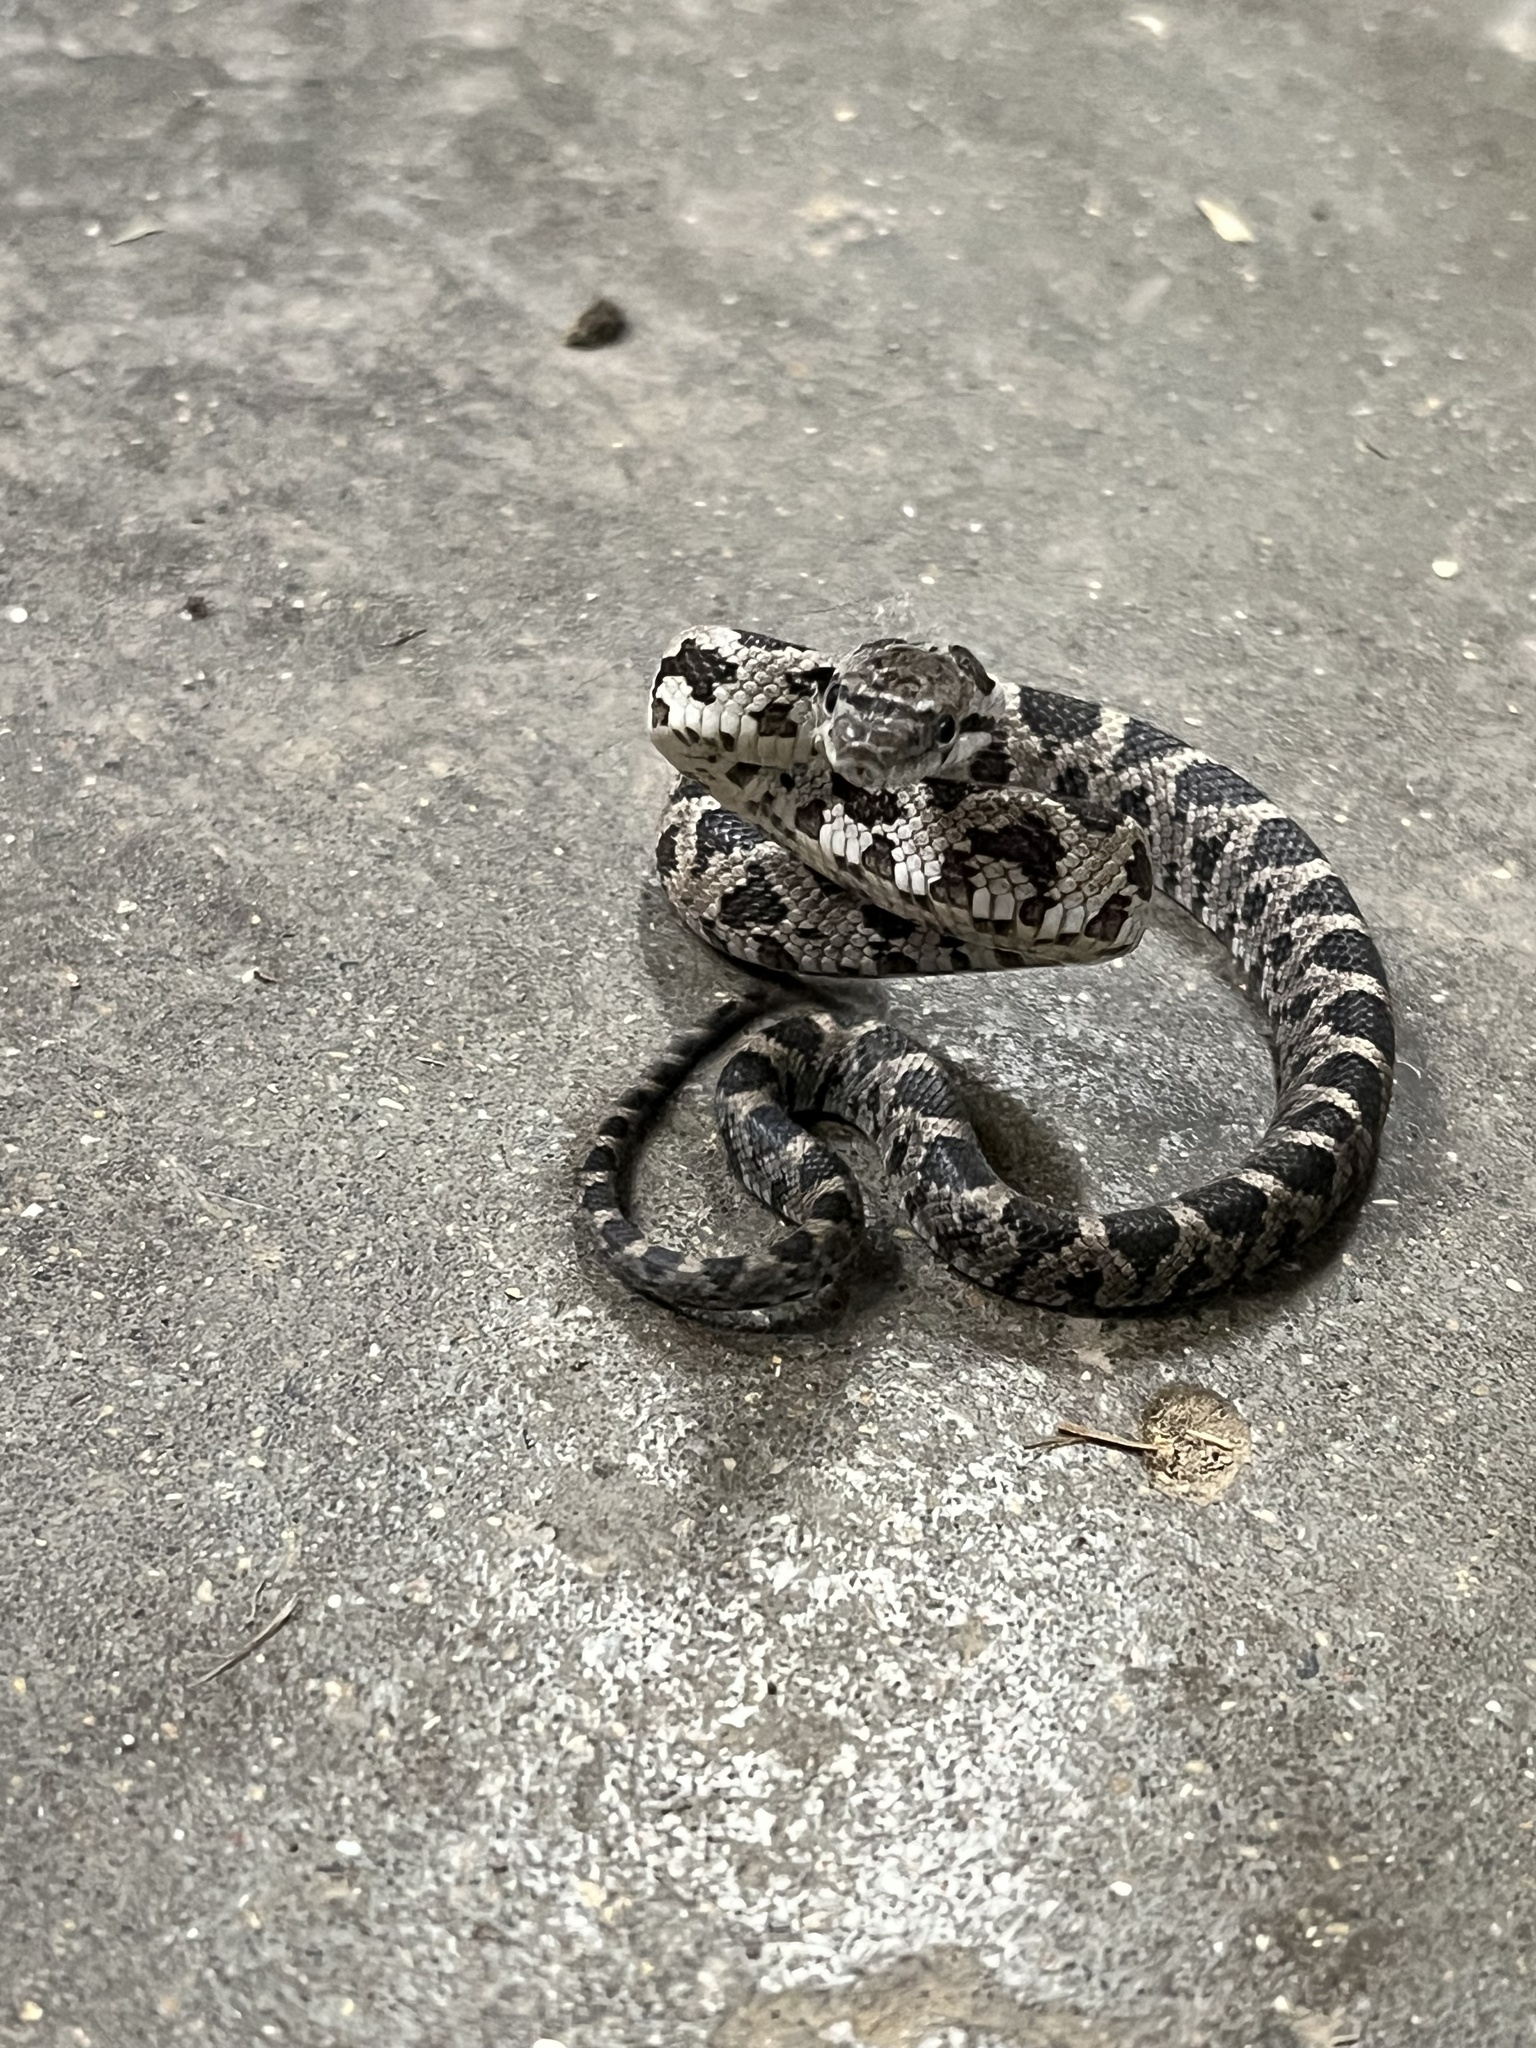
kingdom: Animalia
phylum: Chordata
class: Squamata
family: Colubridae
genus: Pantherophis
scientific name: Pantherophis spiloides
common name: Gray rat snake
